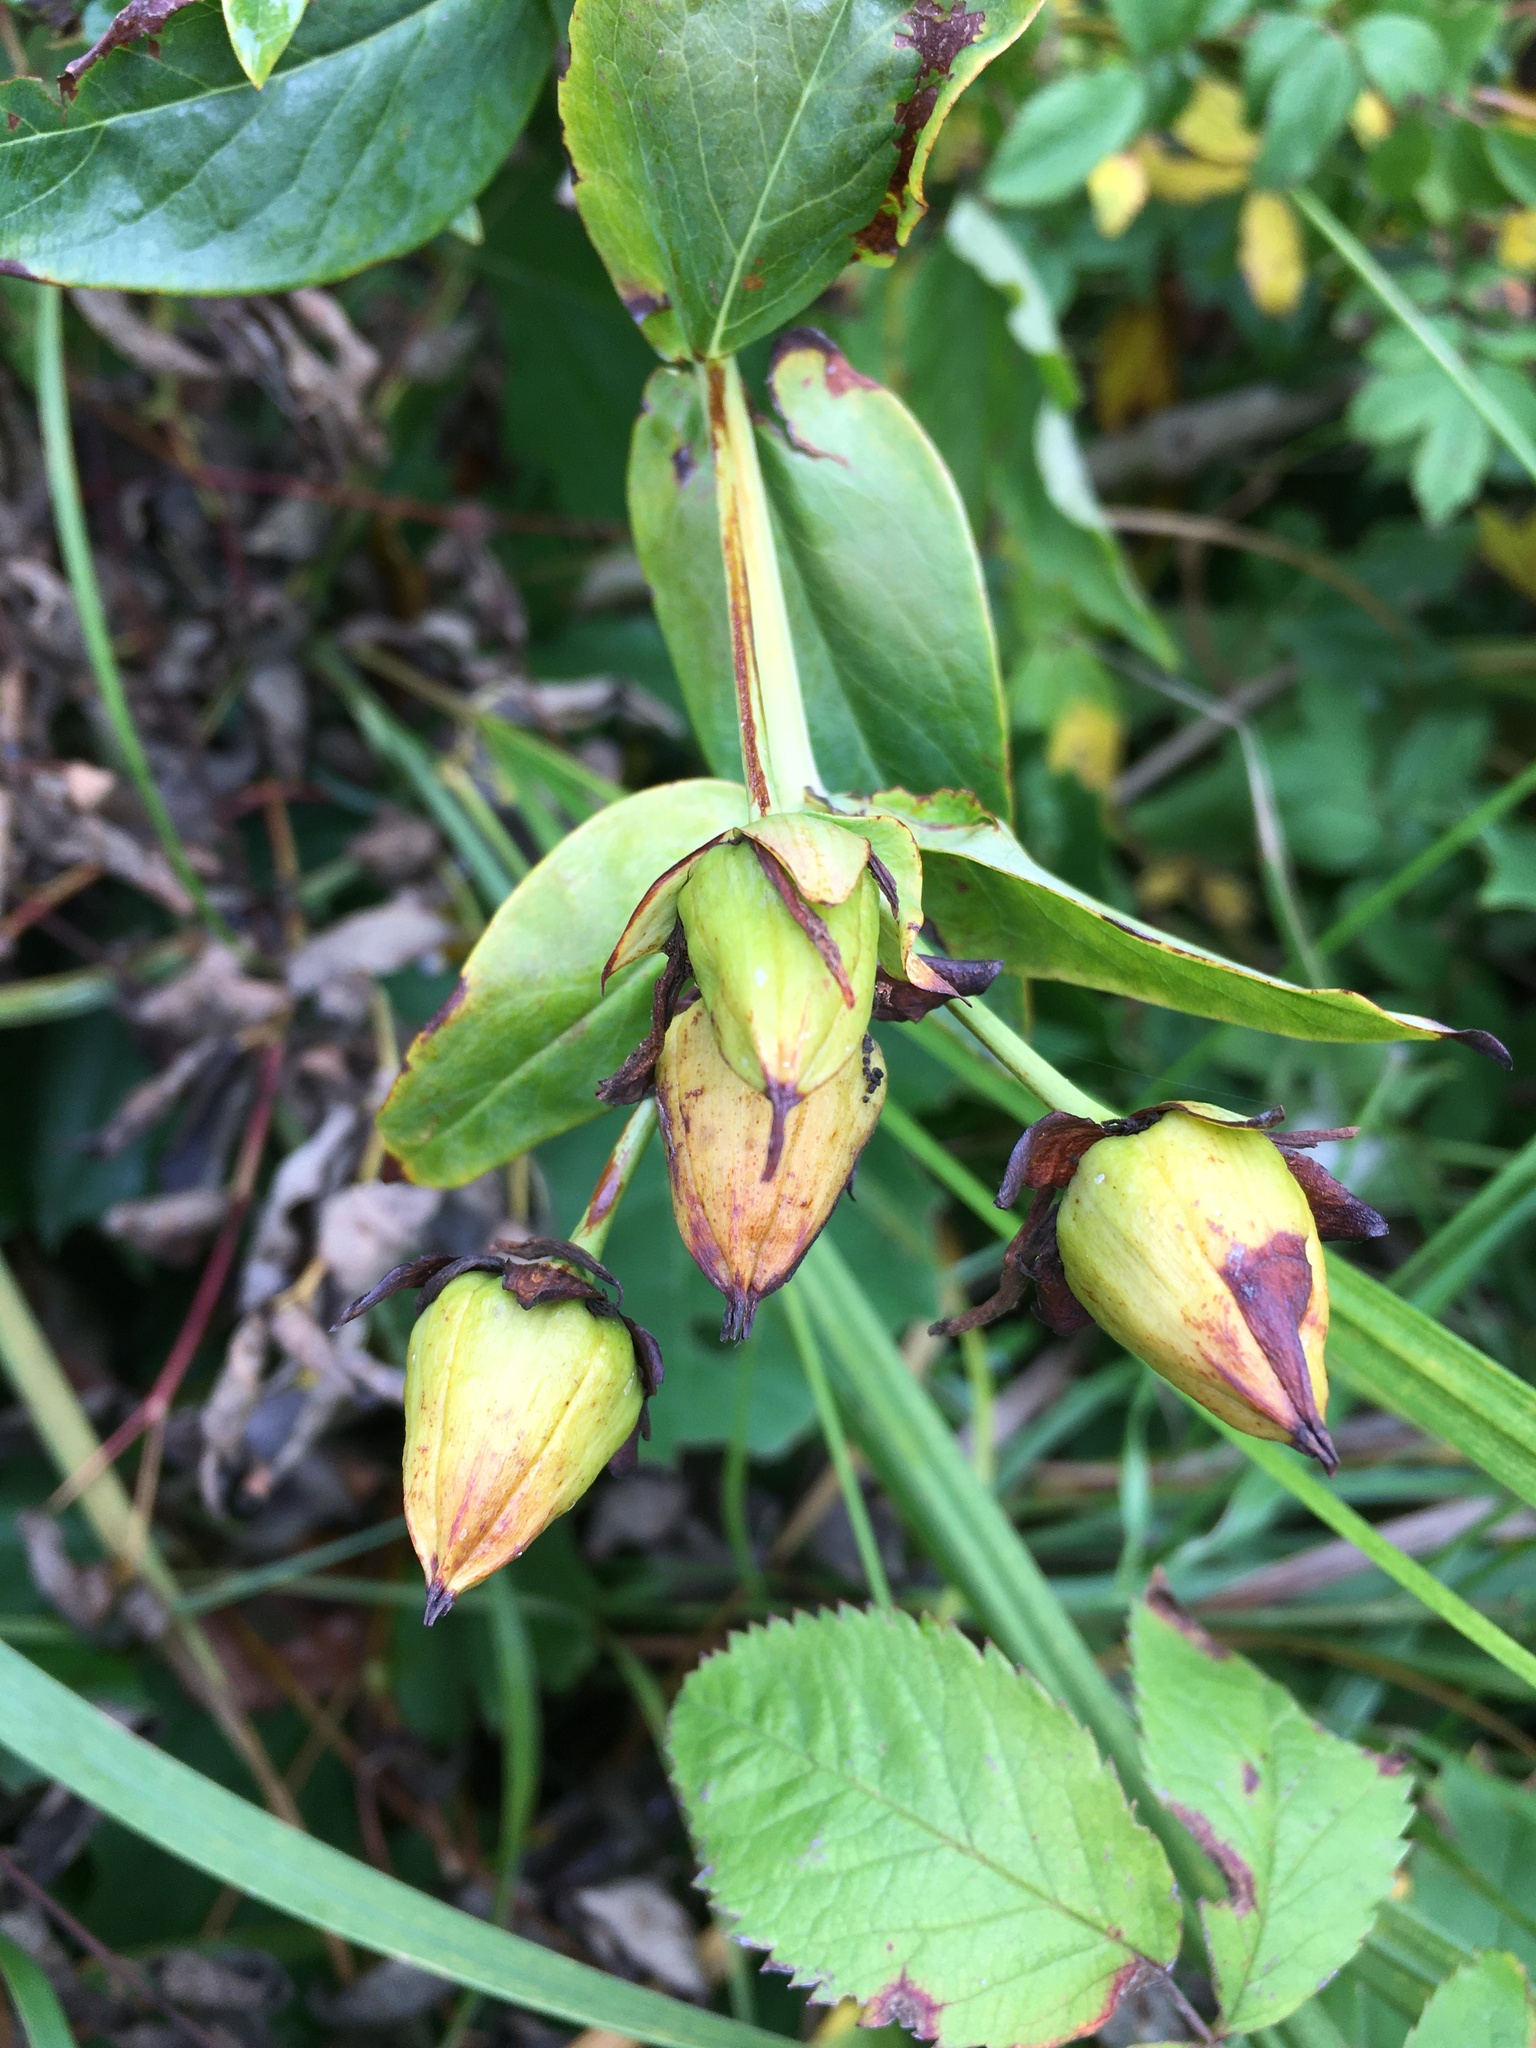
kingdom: Plantae
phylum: Tracheophyta
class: Magnoliopsida
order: Malpighiales
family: Hypericaceae
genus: Hypericum
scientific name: Hypericum ascyron
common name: Giant st. john's-wort
